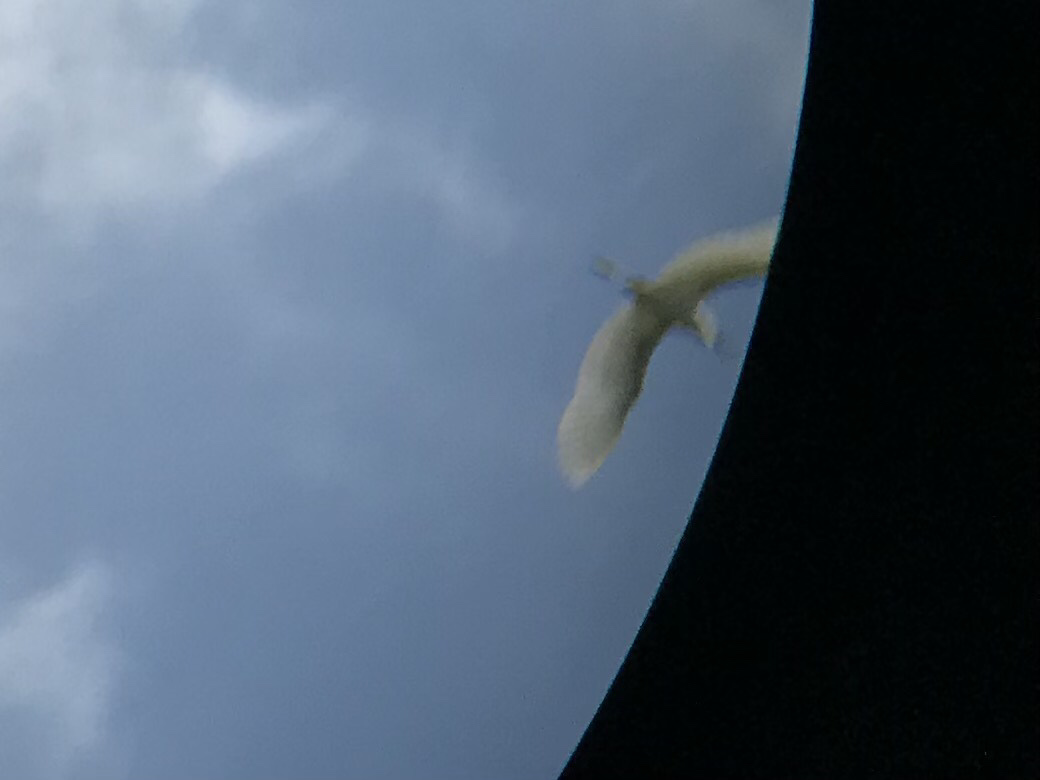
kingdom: Animalia
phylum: Chordata
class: Aves
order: Pelecaniformes
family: Ardeidae
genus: Ardea
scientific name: Ardea alba
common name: Great egret
